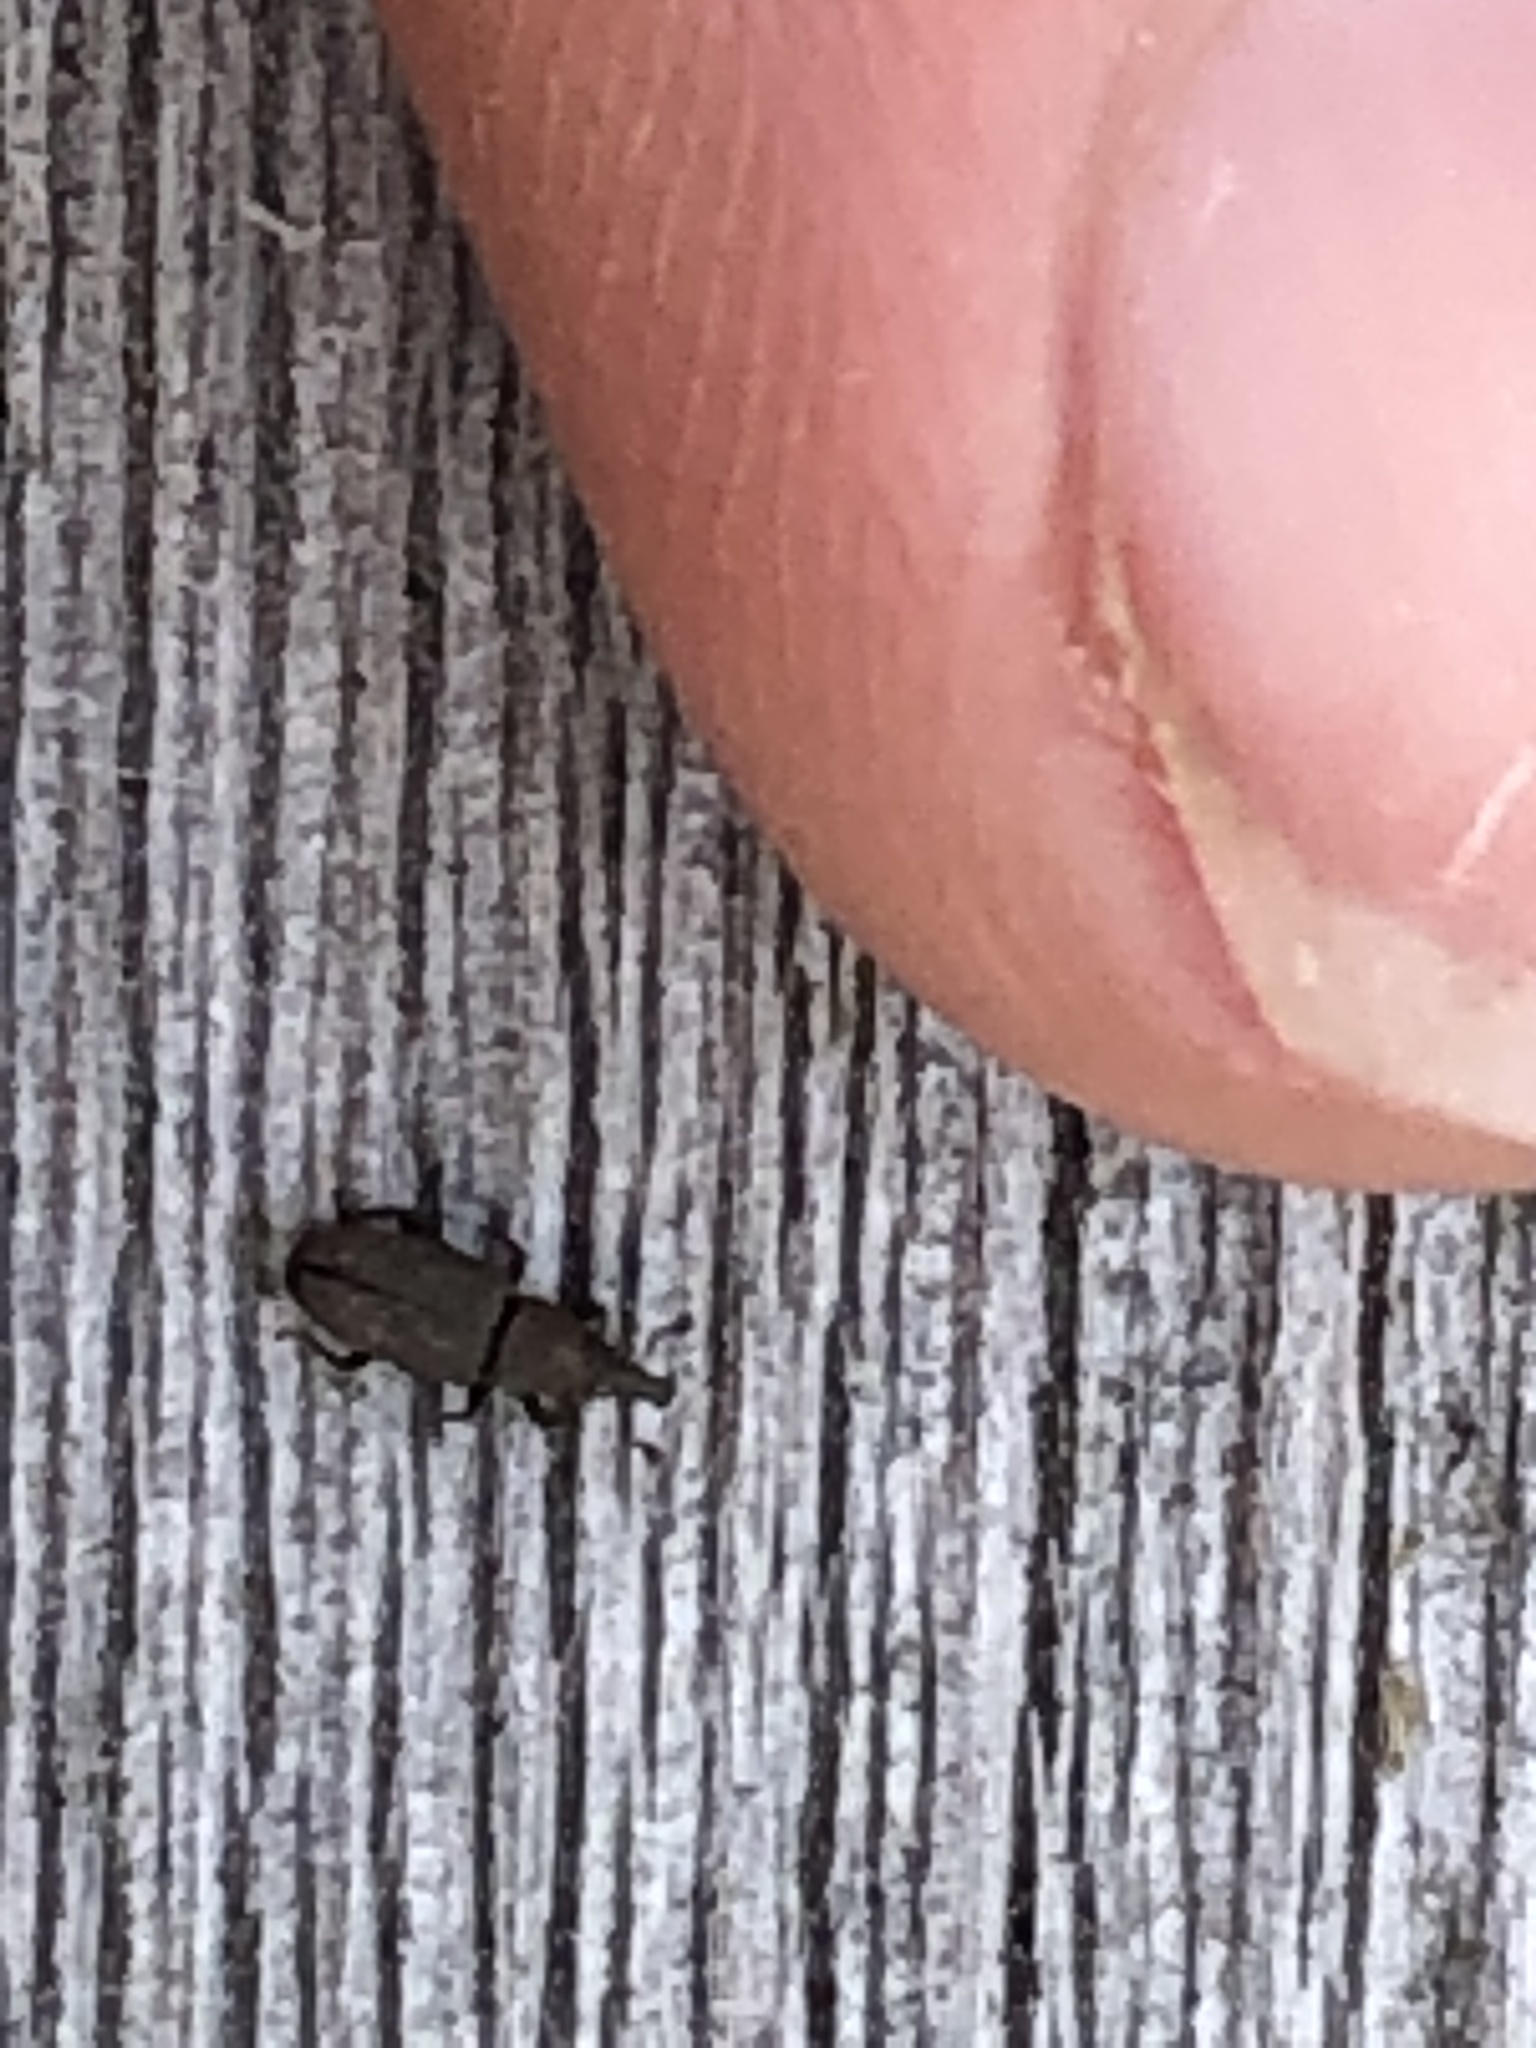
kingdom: Animalia
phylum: Arthropoda
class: Insecta
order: Coleoptera
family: Dryophthoridae
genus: Dryophthorus
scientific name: Dryophthorus americanus
